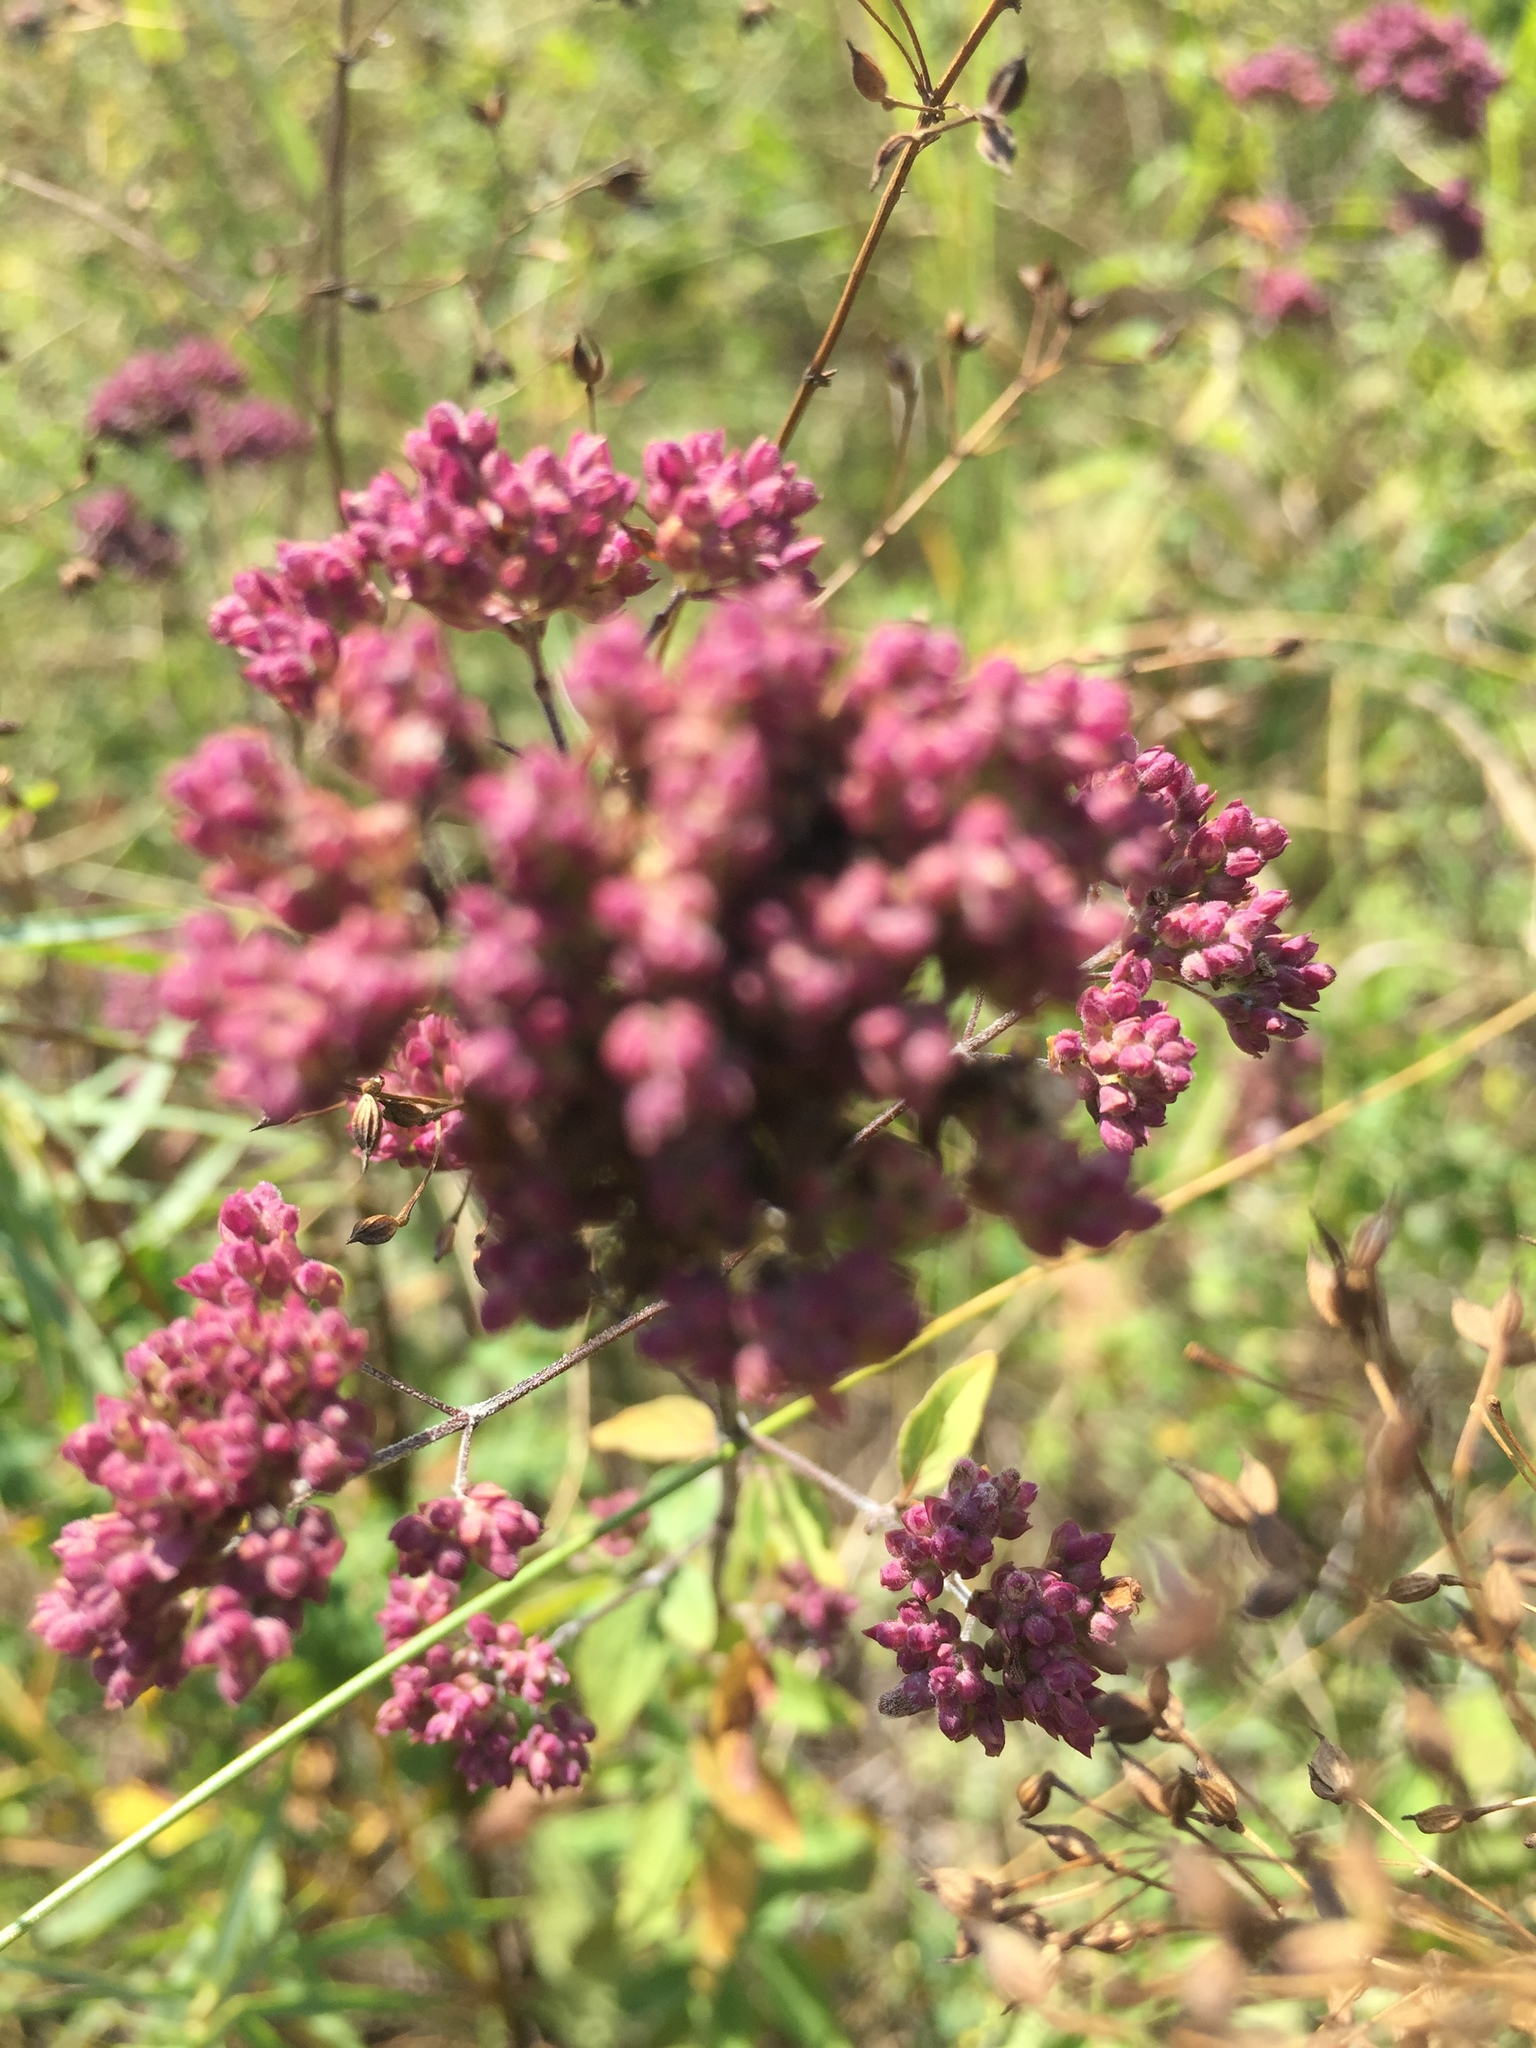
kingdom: Plantae
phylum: Tracheophyta
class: Magnoliopsida
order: Lamiales
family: Lamiaceae
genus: Origanum
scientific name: Origanum vulgare
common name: Wild marjoram
